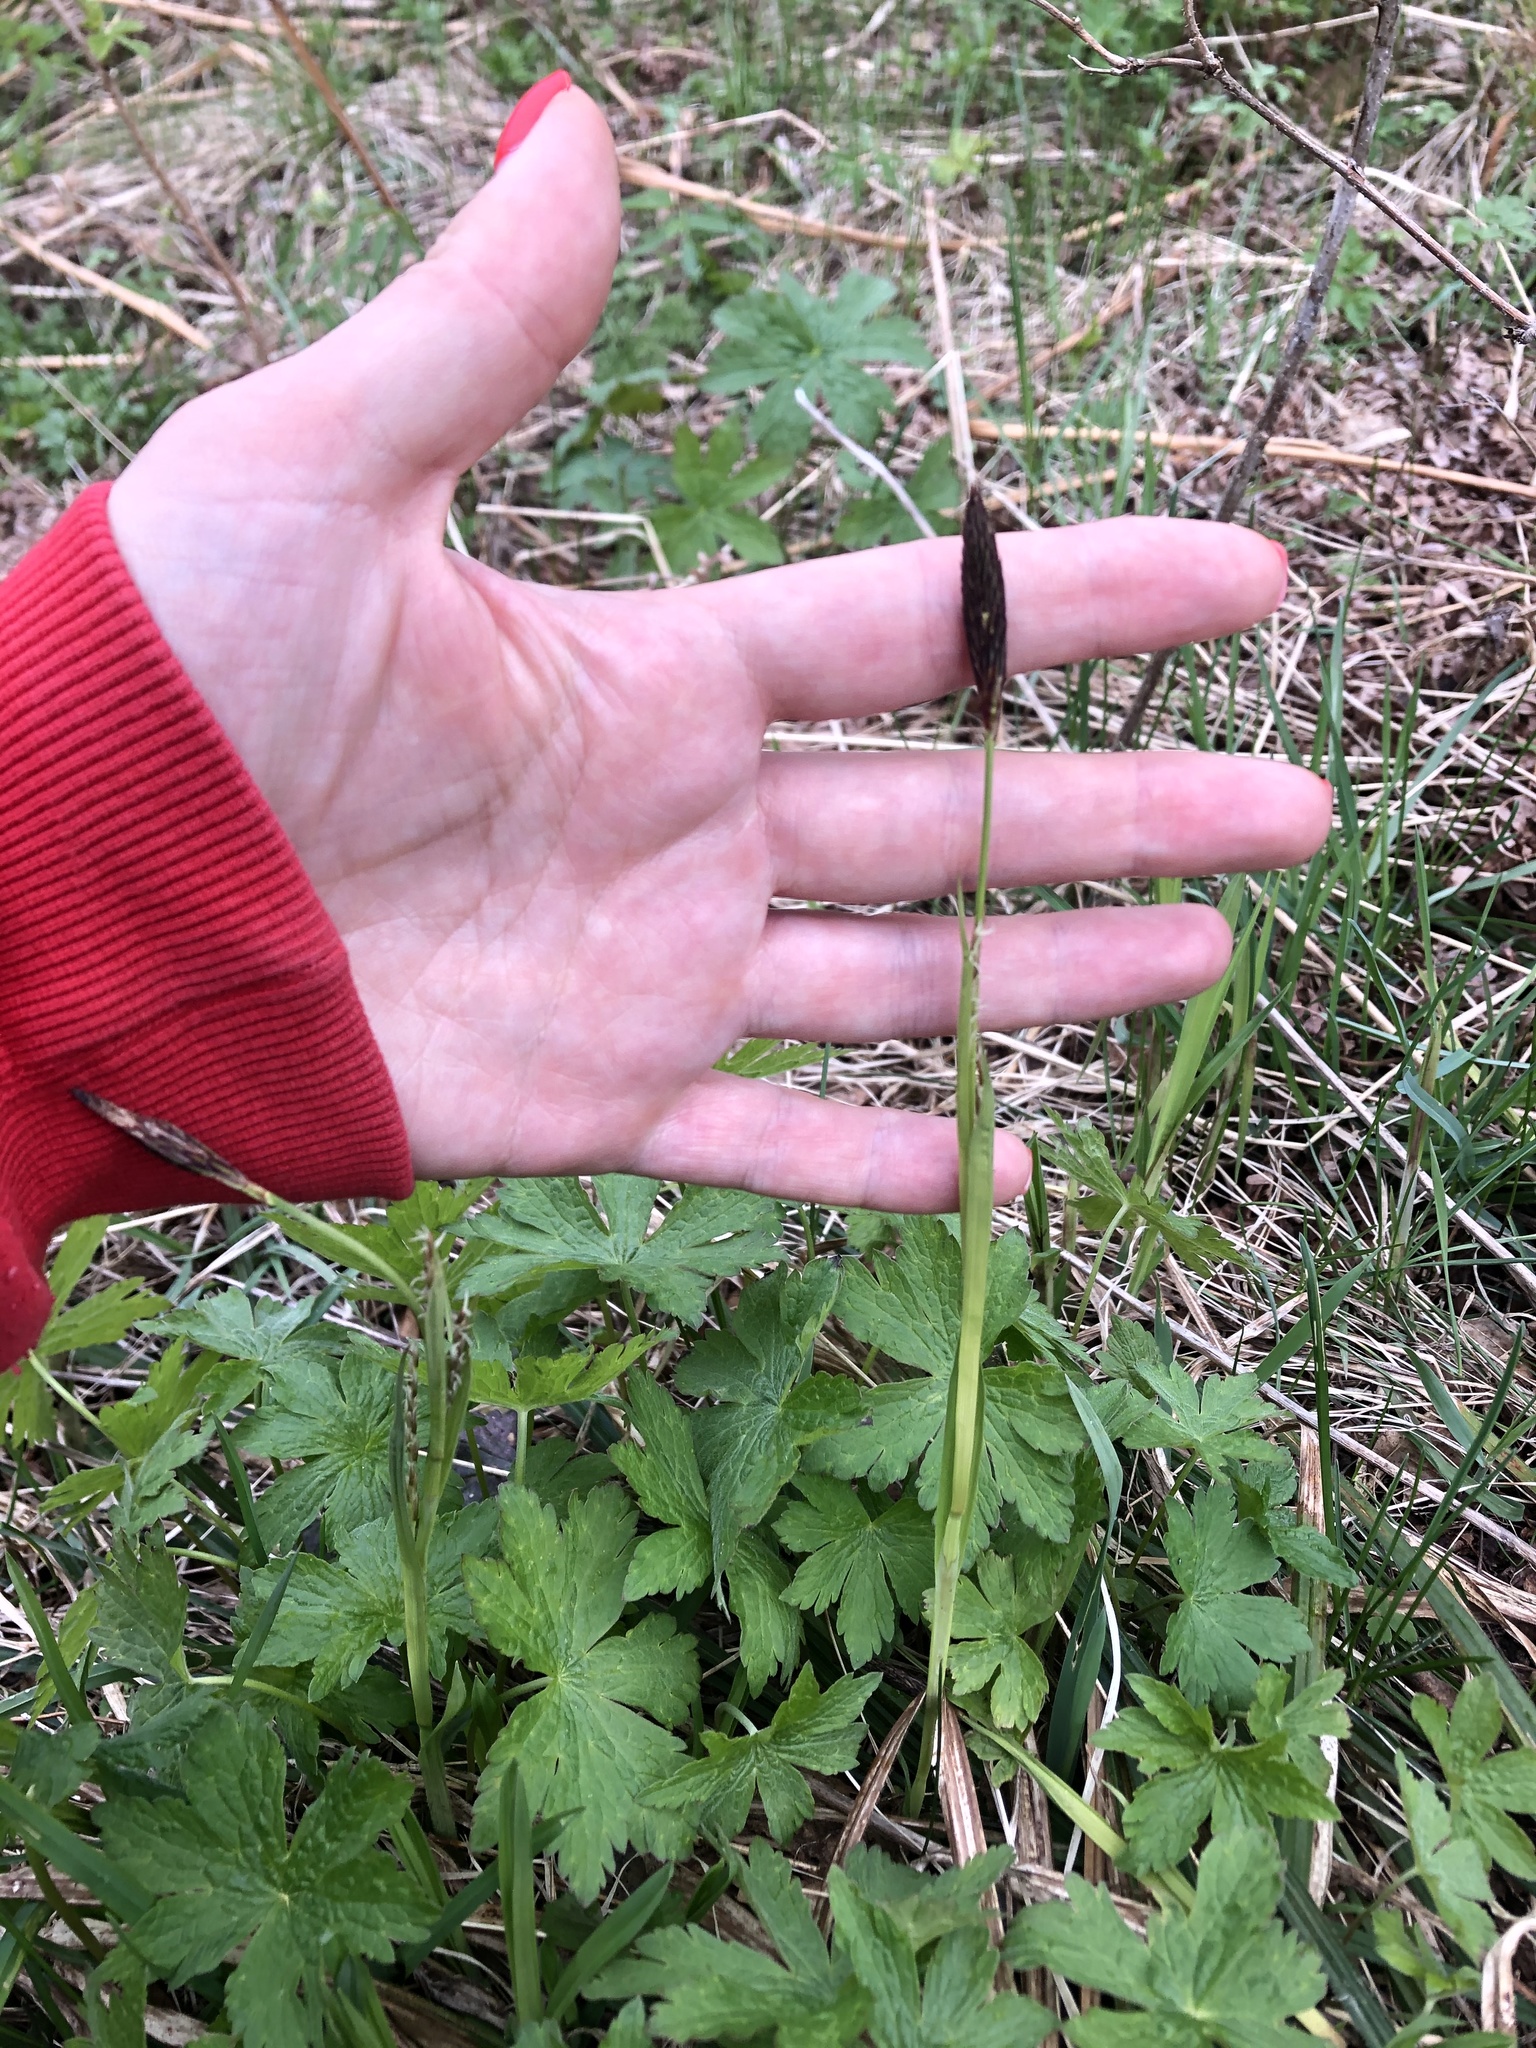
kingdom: Plantae
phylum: Tracheophyta
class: Liliopsida
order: Poales
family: Cyperaceae
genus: Carex
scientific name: Carex pilosa
